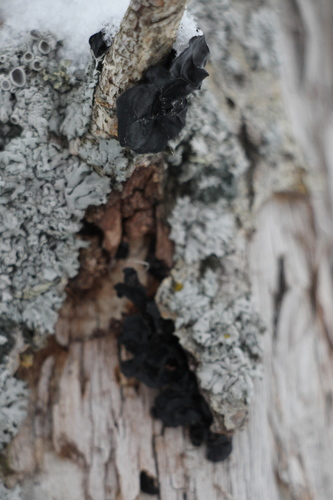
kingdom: Fungi
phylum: Basidiomycota
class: Agaricomycetes
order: Auriculariales
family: Auriculariaceae
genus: Exidia
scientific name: Exidia glandulosa
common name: Witches' butter
